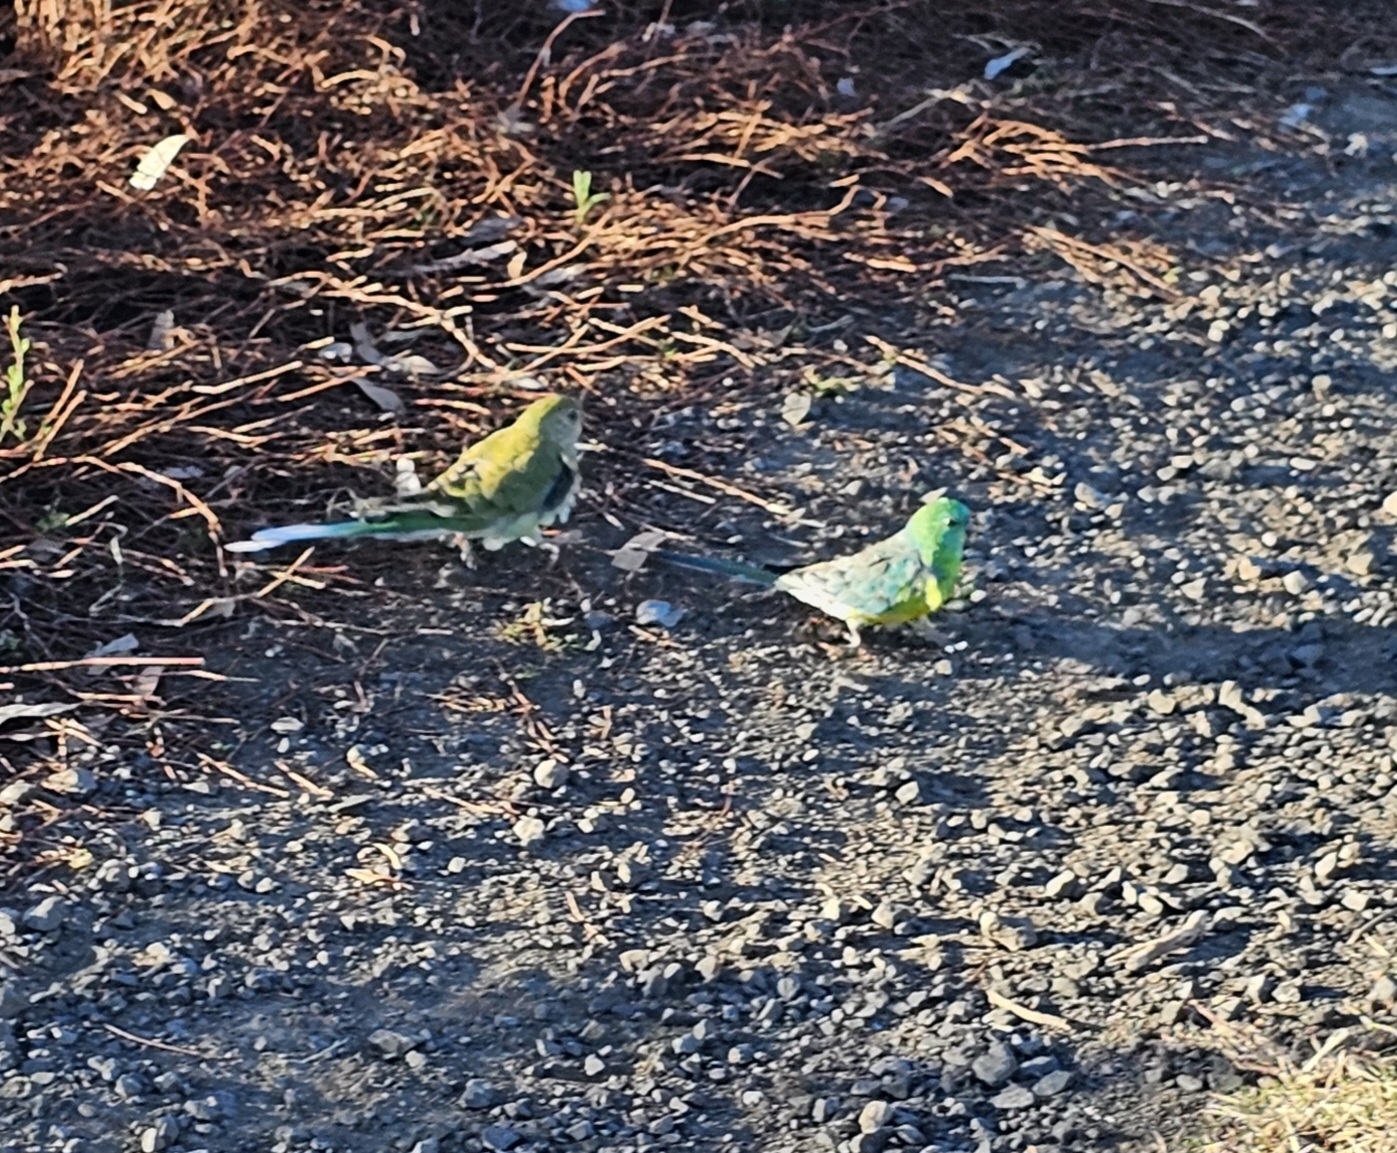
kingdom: Animalia
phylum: Chordata
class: Aves
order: Psittaciformes
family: Psittacidae
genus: Psephotus
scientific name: Psephotus haematonotus
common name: Red-rumped parrot
